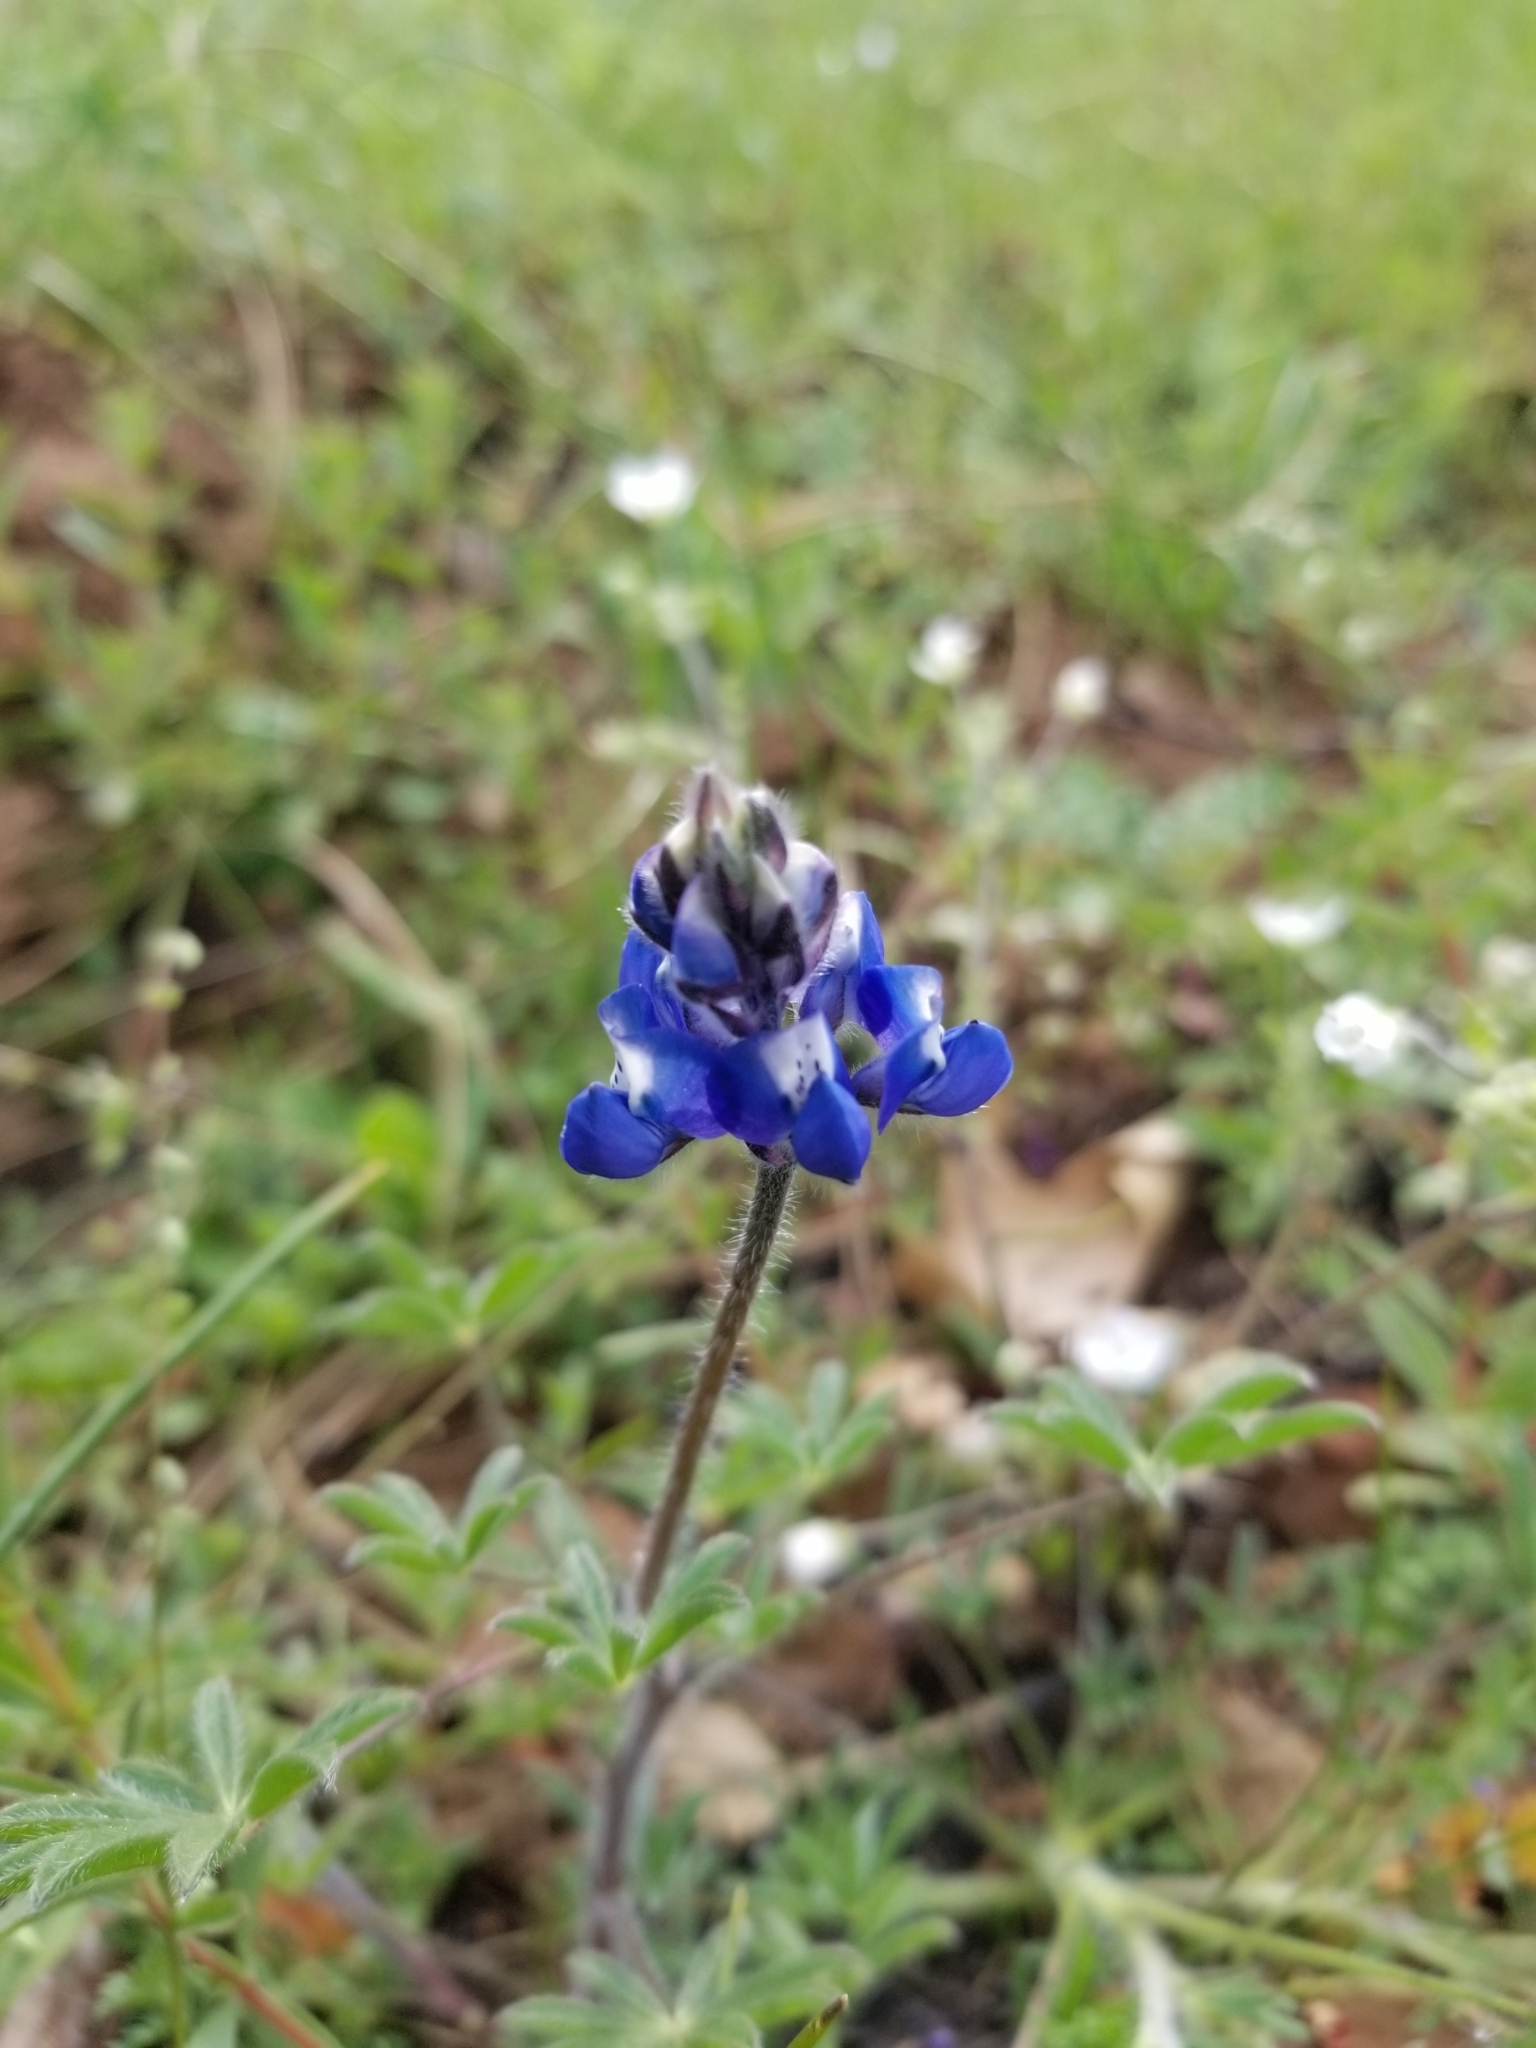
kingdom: Plantae
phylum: Tracheophyta
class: Magnoliopsida
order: Fabales
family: Fabaceae
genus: Lupinus
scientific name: Lupinus bicolor
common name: Miniature lupine
